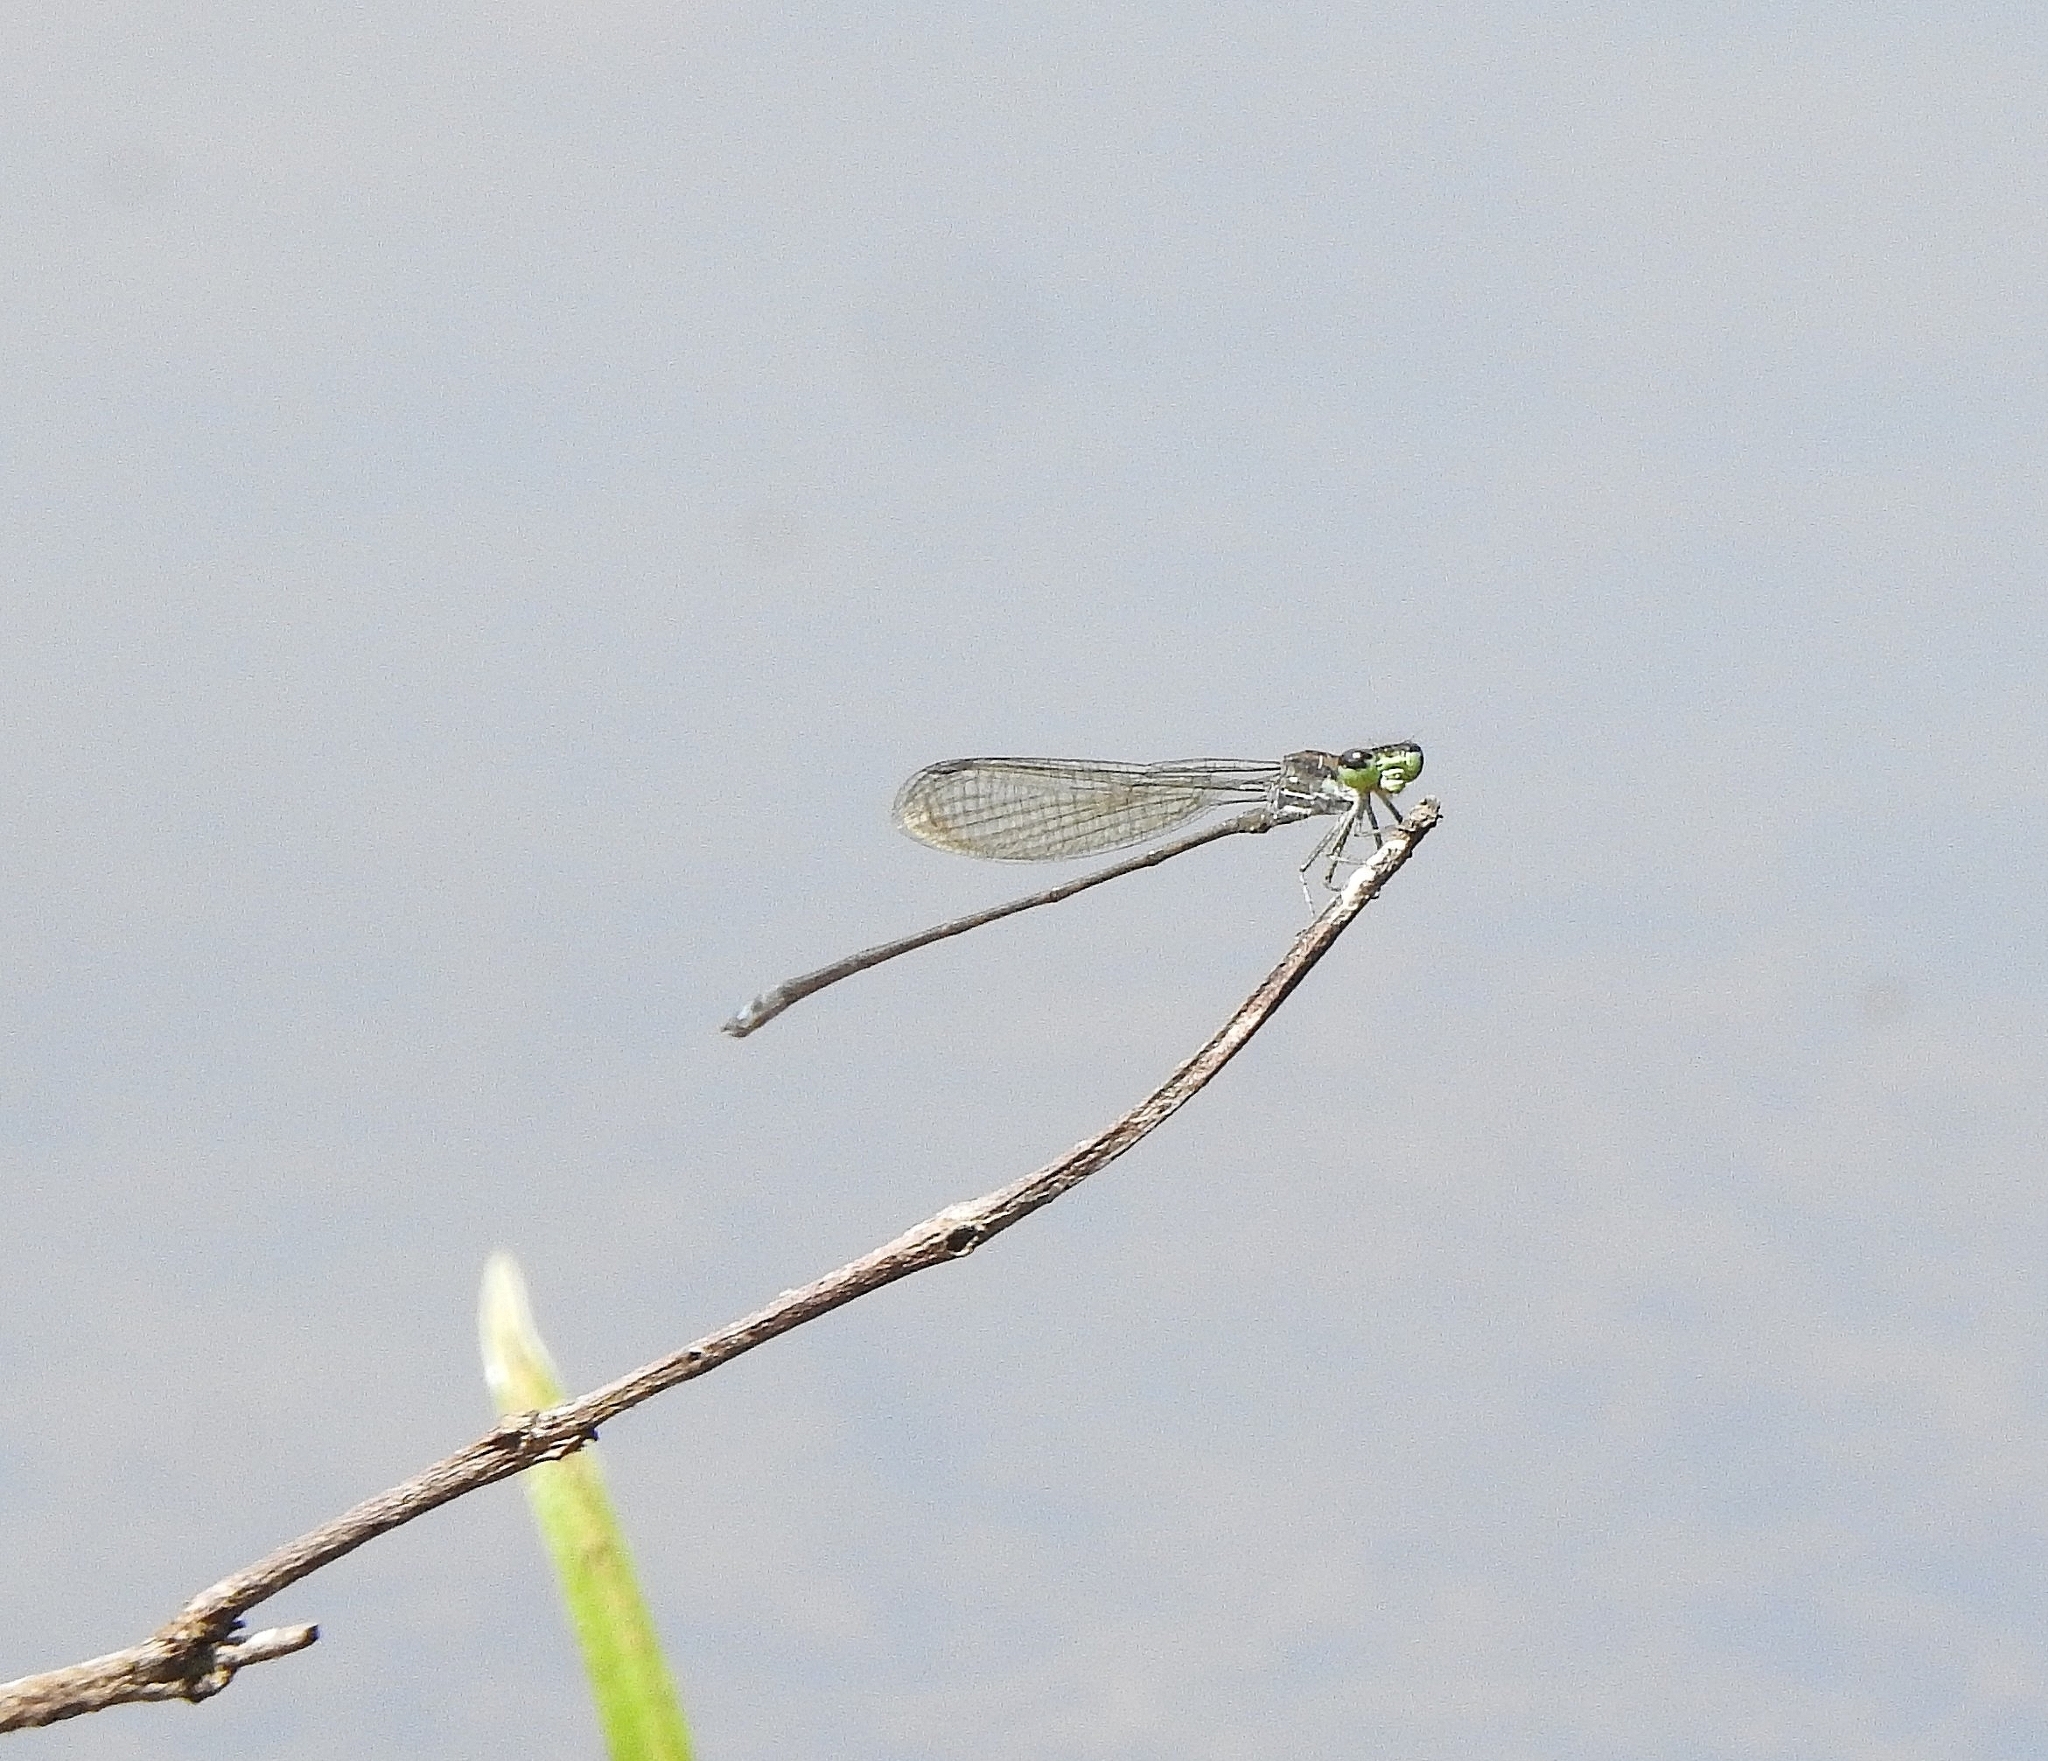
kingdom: Animalia
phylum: Arthropoda
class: Insecta
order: Odonata
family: Coenagrionidae
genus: Pseudagrion
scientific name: Pseudagrion indicum
